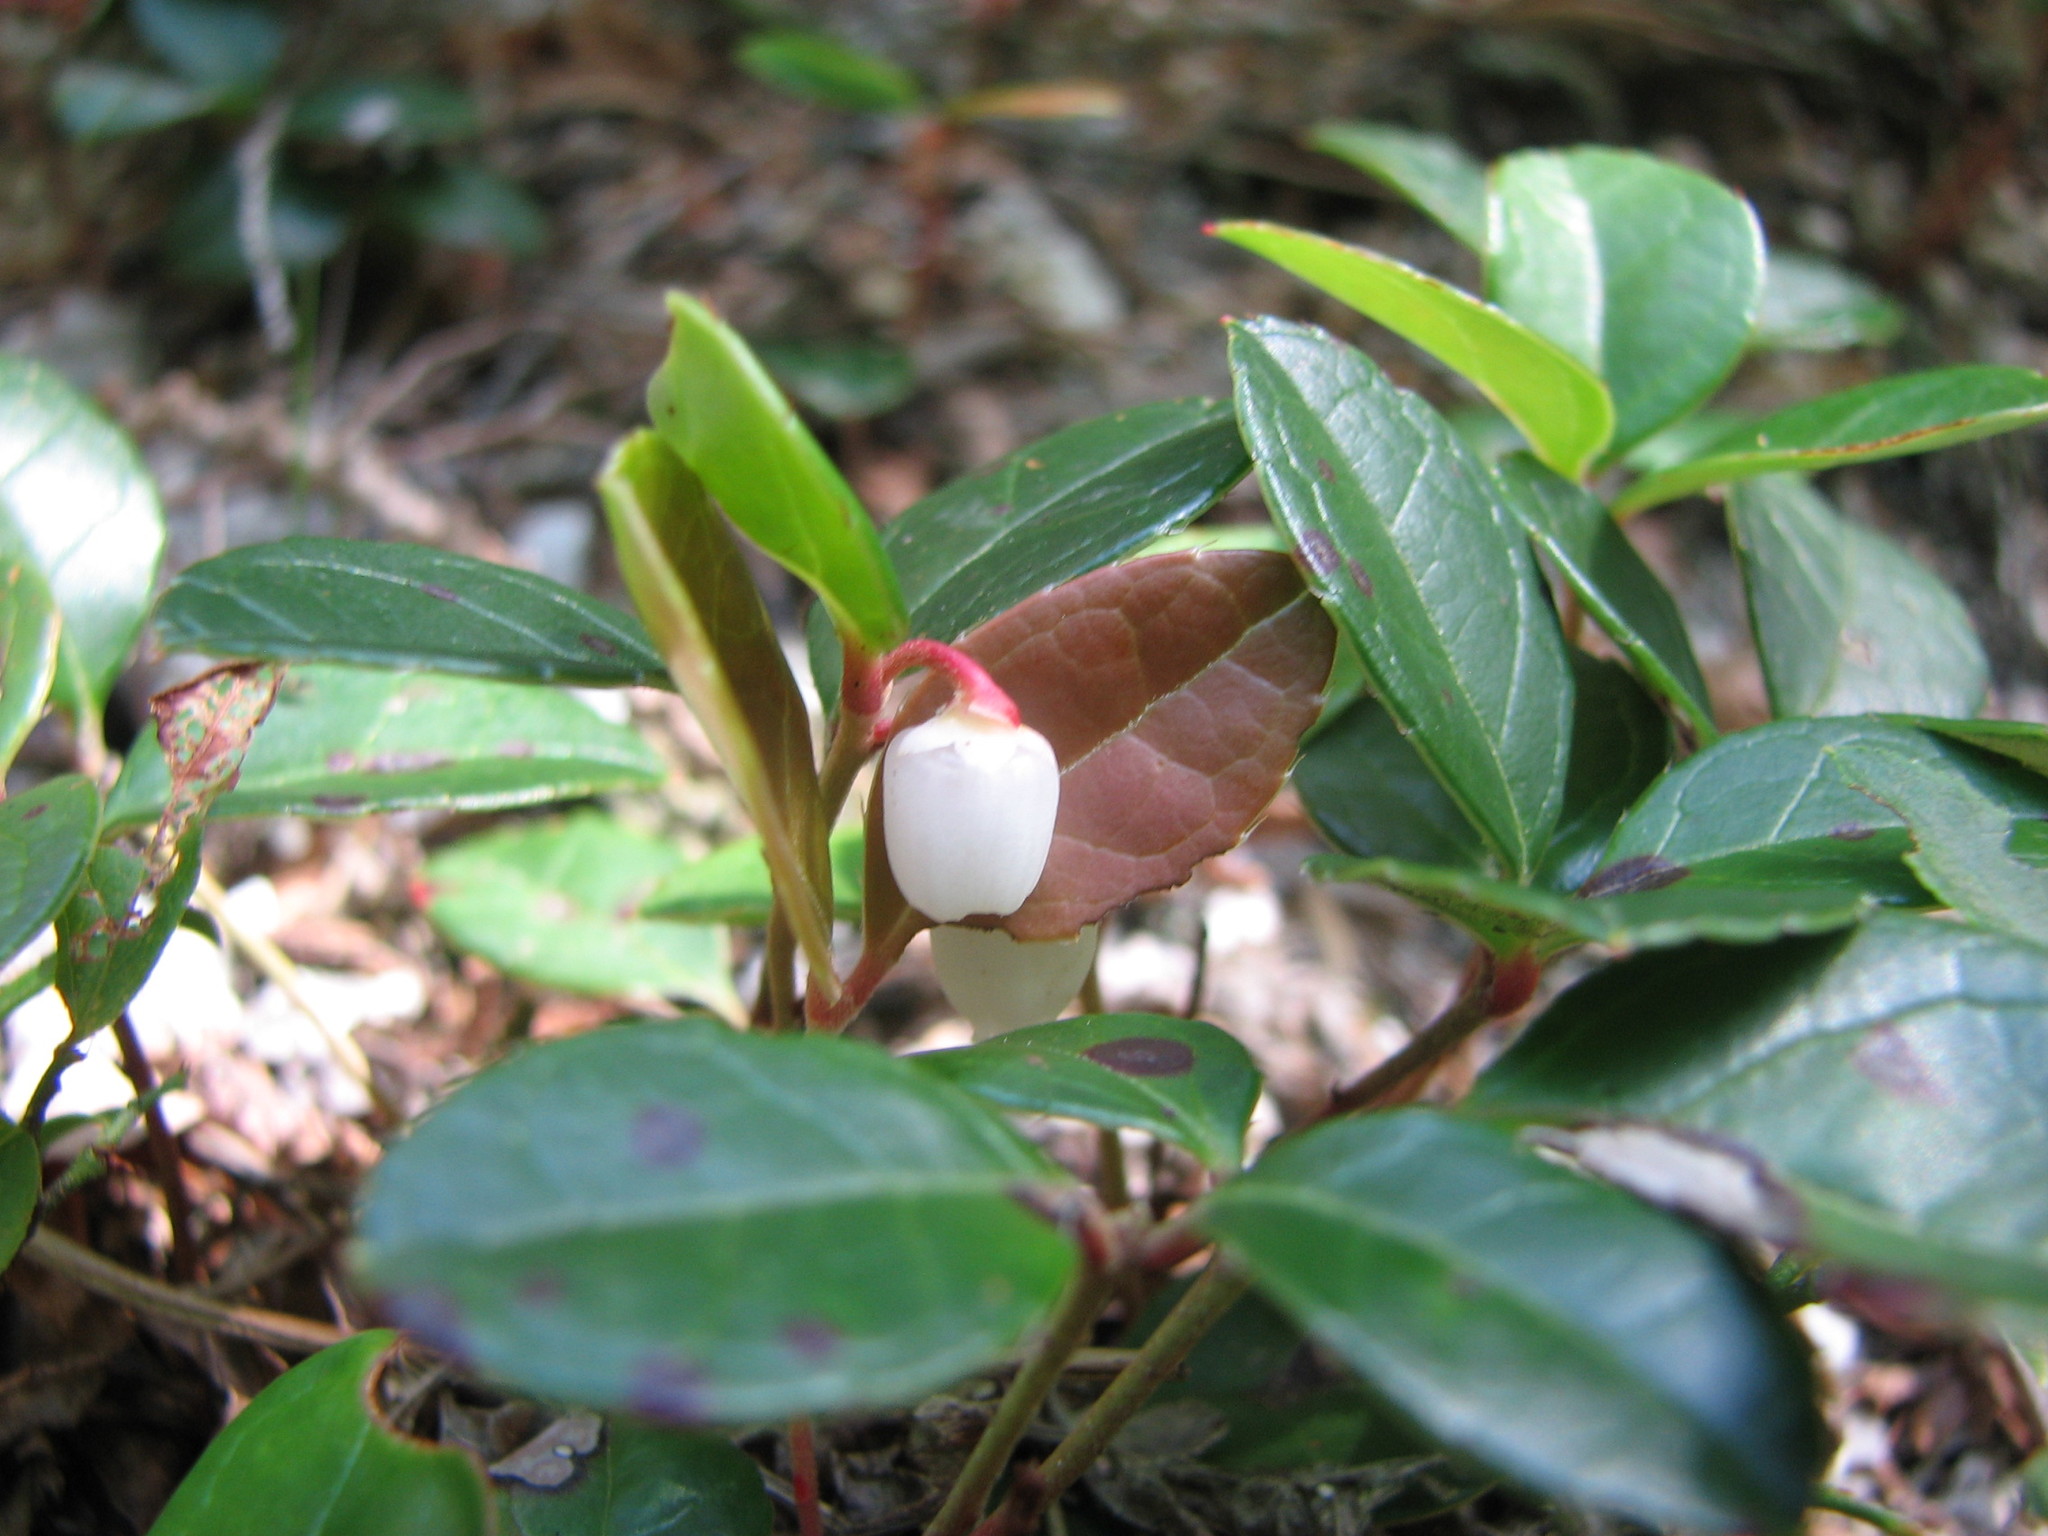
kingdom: Plantae
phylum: Tracheophyta
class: Magnoliopsida
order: Ericales
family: Ericaceae
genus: Gaultheria
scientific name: Gaultheria procumbens
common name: Checkerberry
